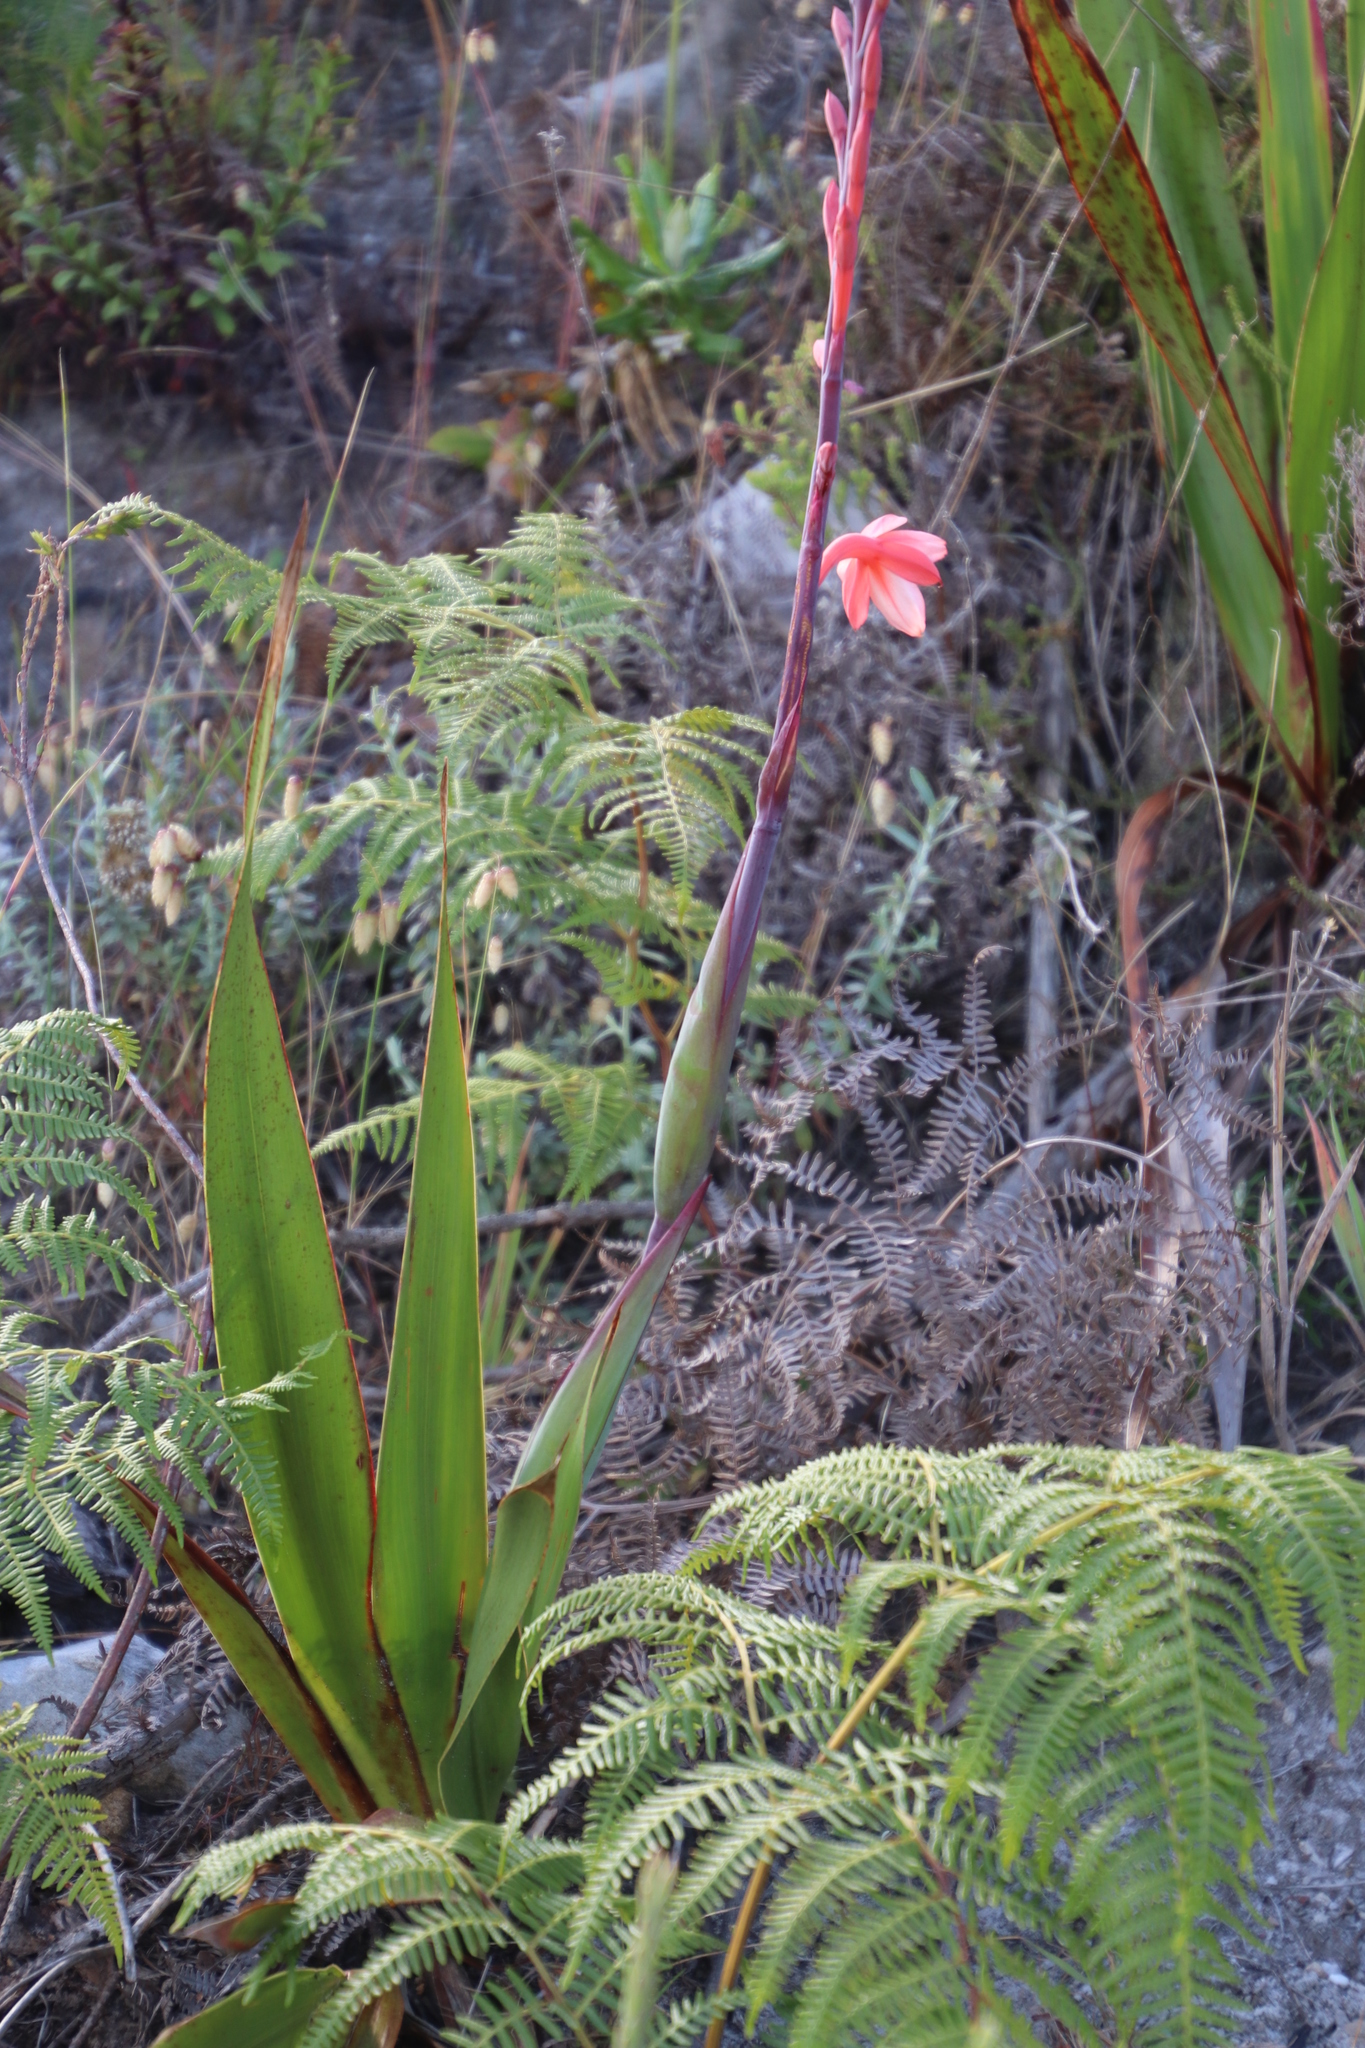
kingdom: Plantae
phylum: Tracheophyta
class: Liliopsida
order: Asparagales
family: Iridaceae
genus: Watsonia
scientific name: Watsonia tabularis
